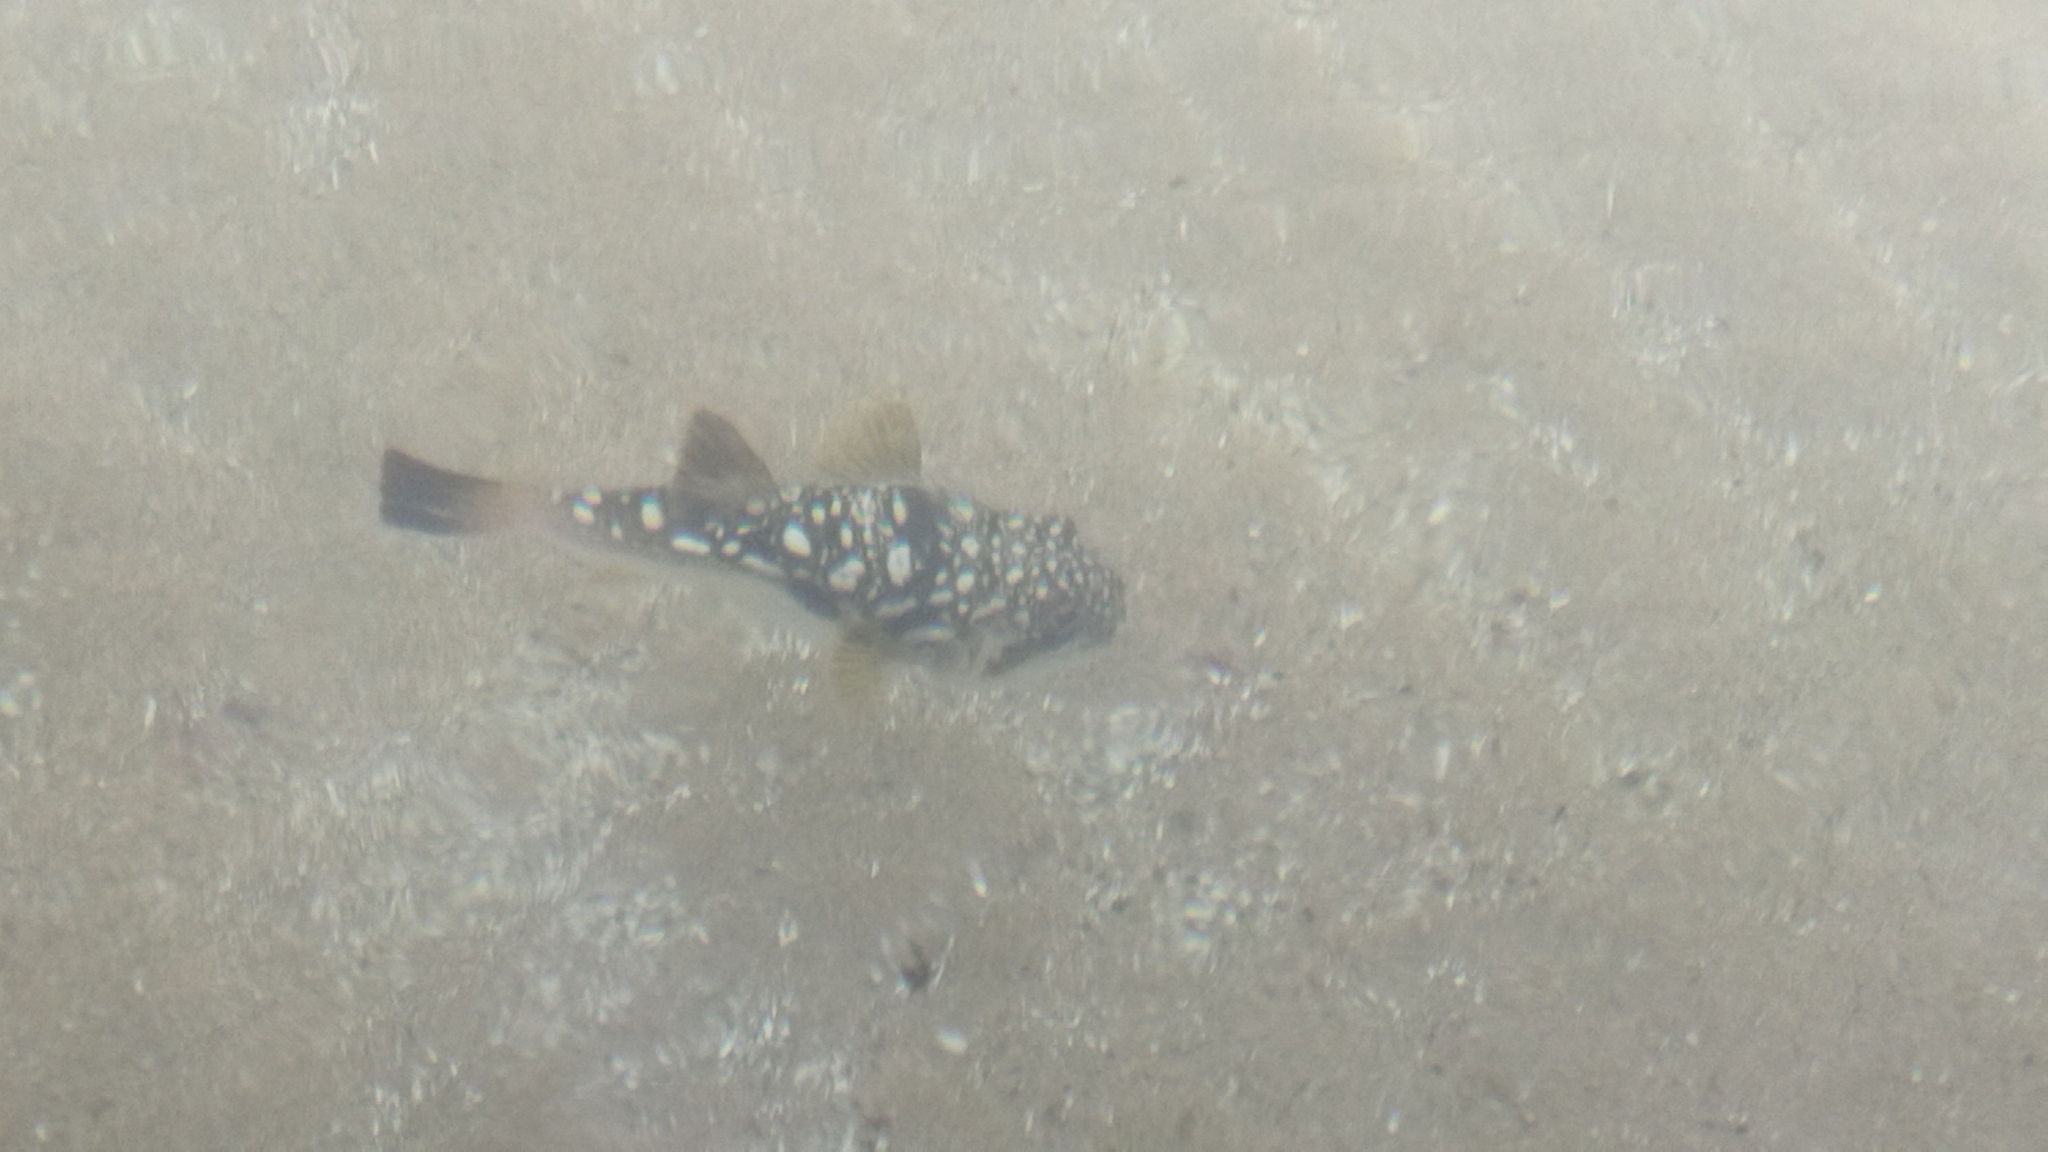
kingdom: Animalia
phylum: Chordata
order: Tetraodontiformes
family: Tetraodontidae
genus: Amblyrhynchote
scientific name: Amblyrhynchote honckenii
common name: Evileye blaasop
